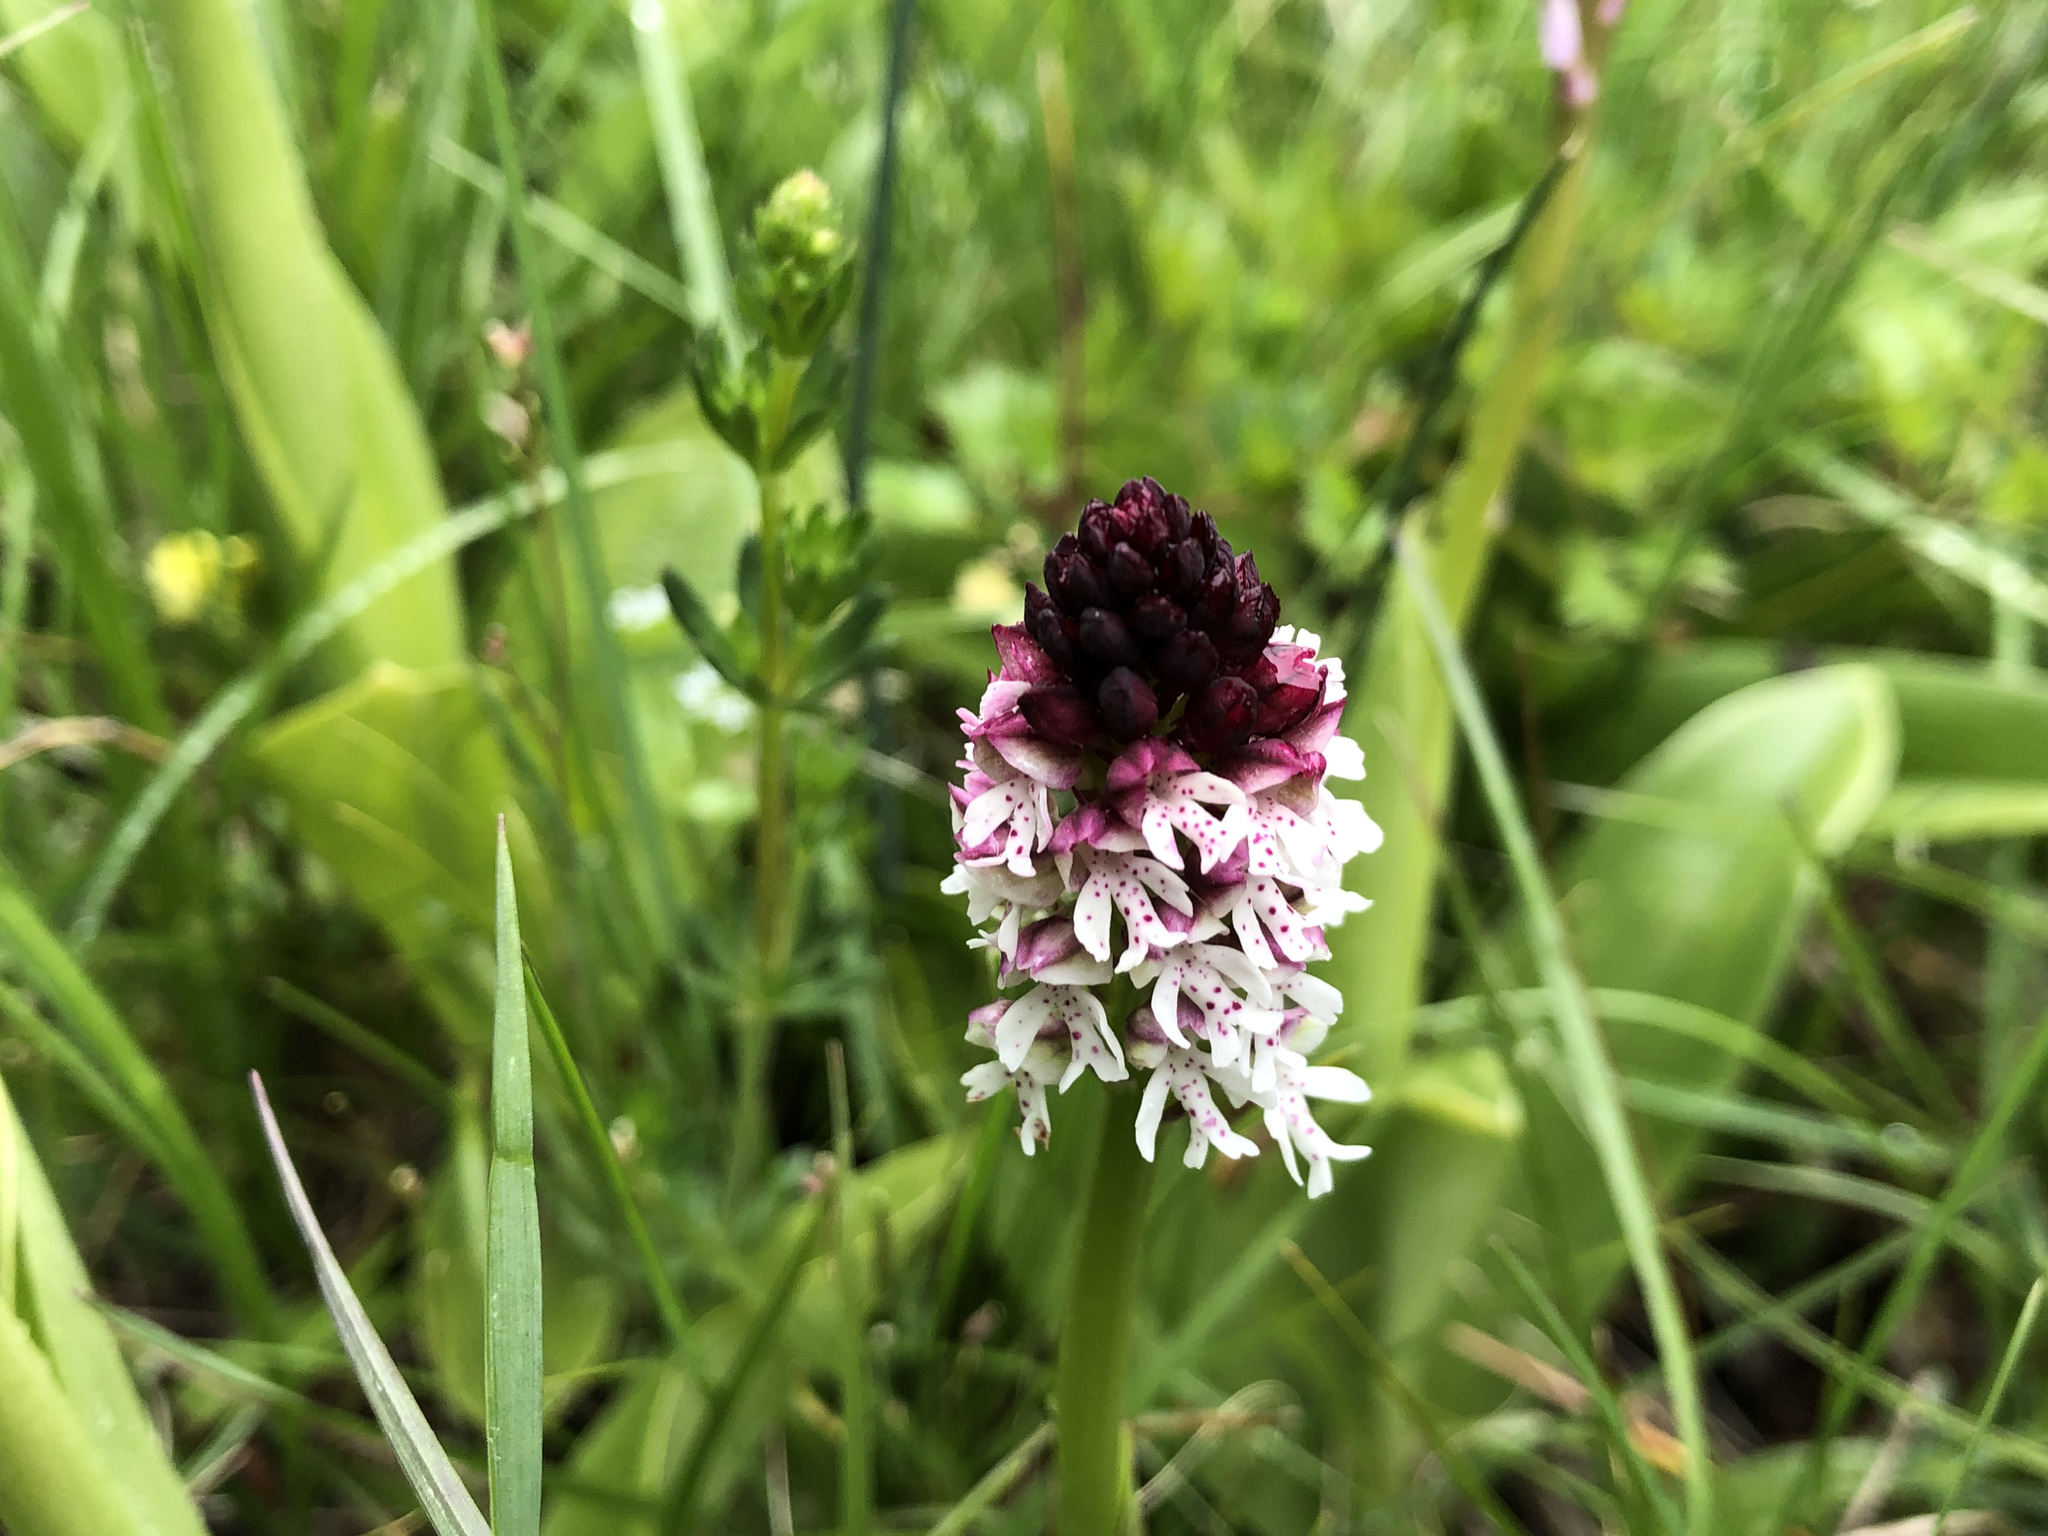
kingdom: Plantae
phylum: Tracheophyta
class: Liliopsida
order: Asparagales
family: Orchidaceae
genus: Neotinea
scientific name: Neotinea ustulata
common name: Burnt orchid
